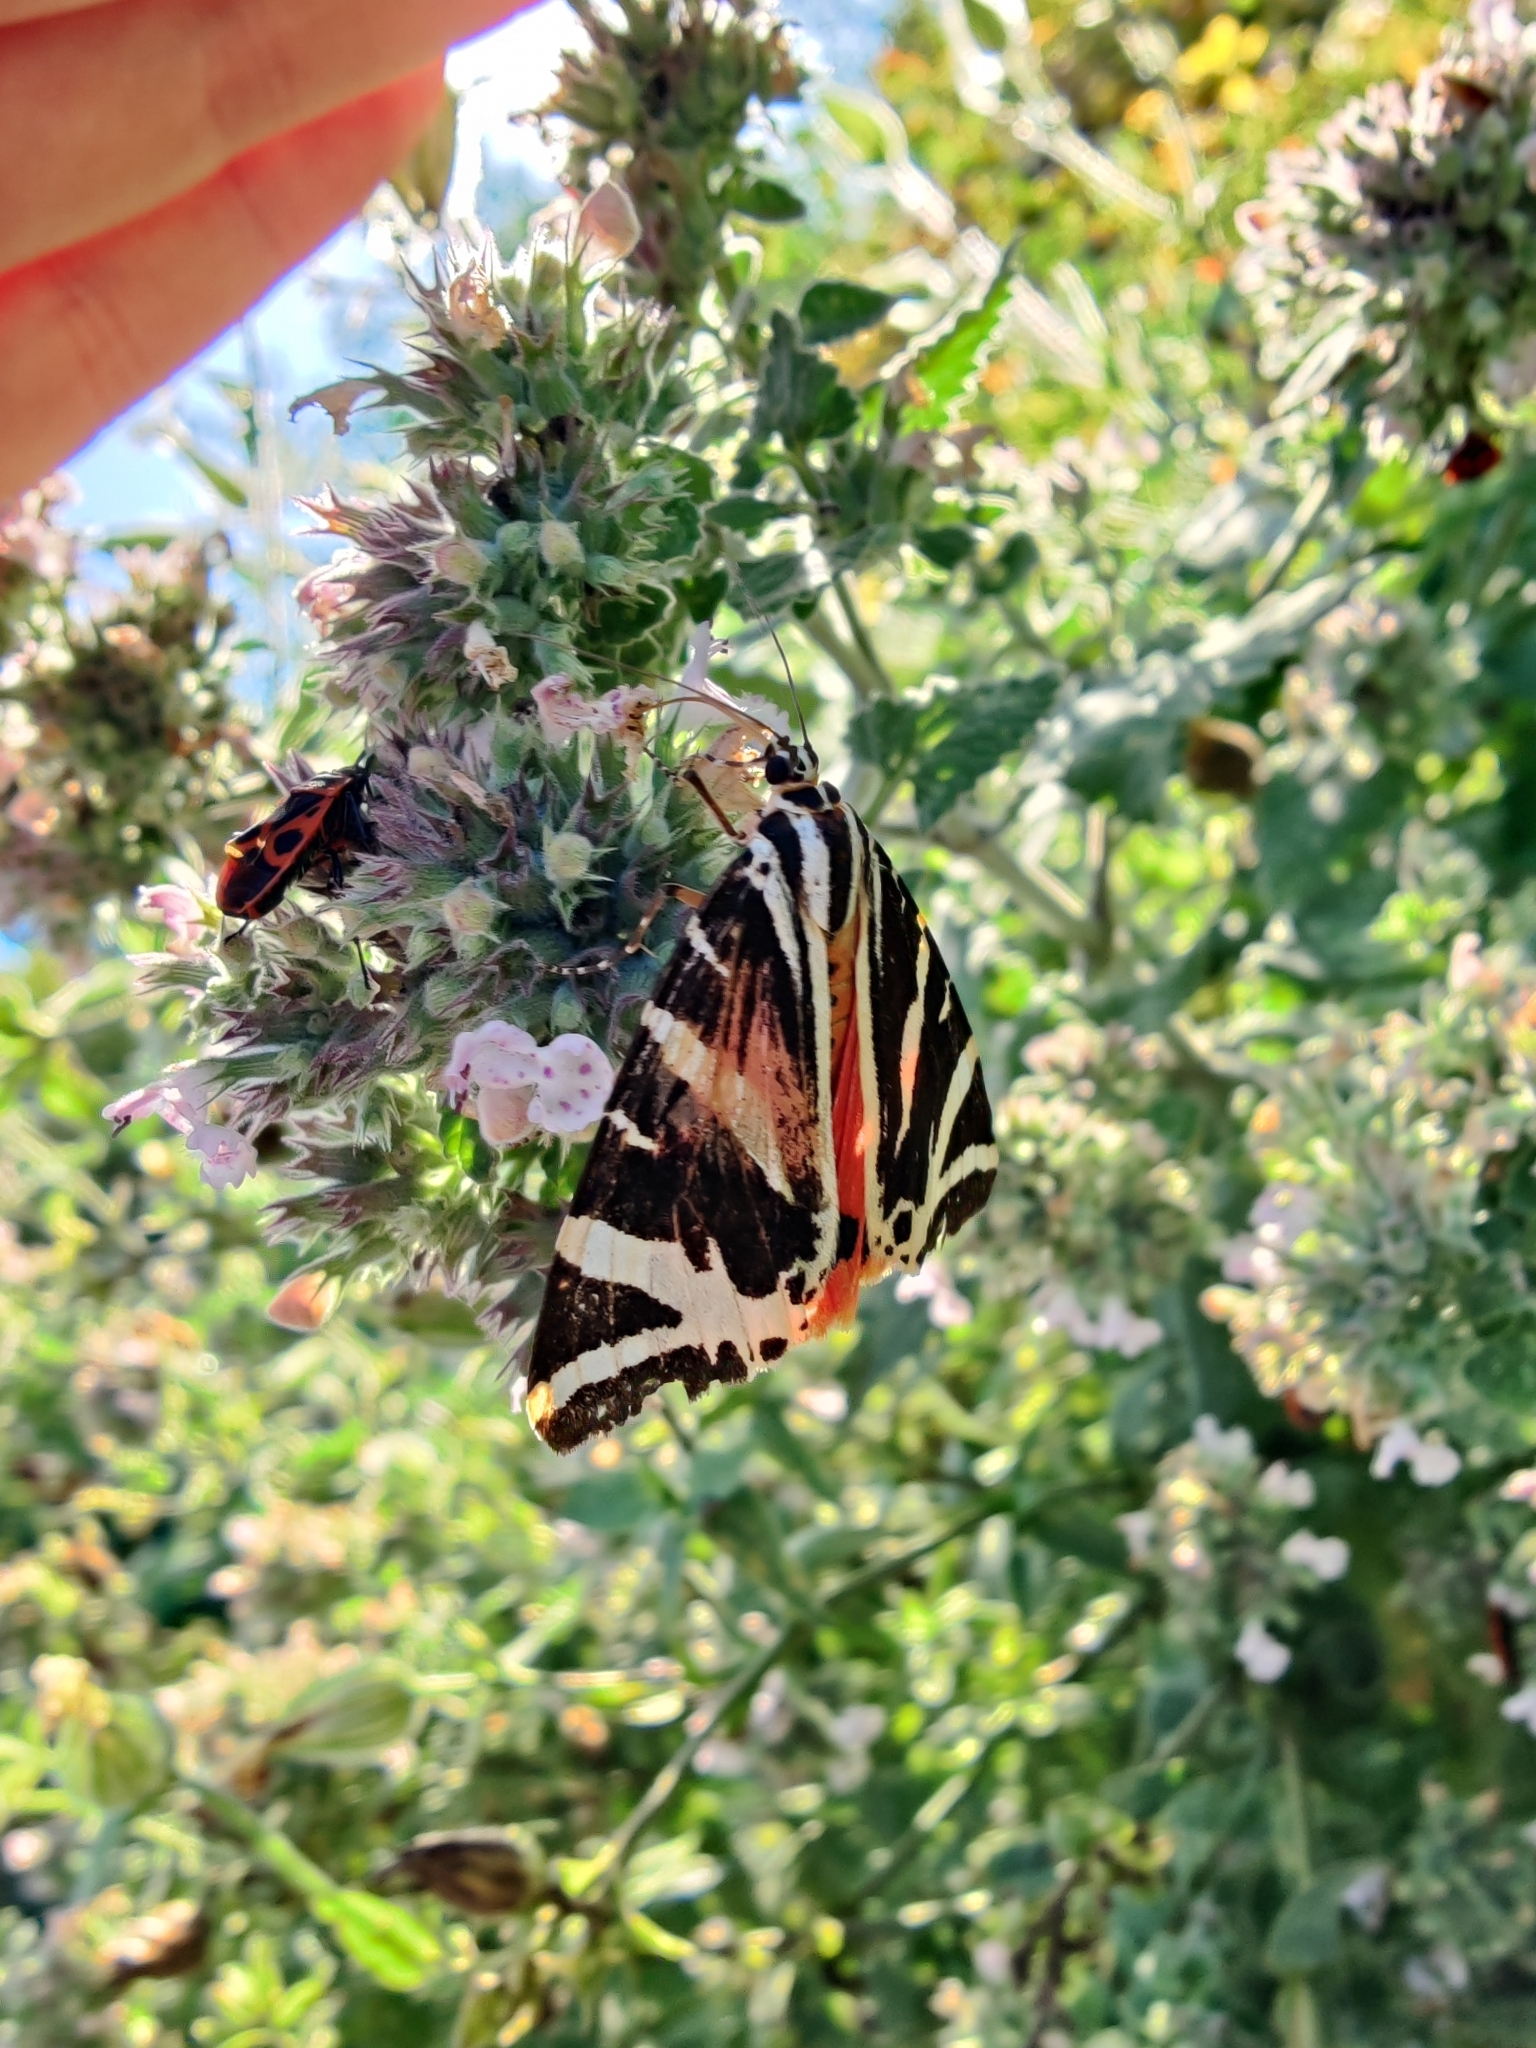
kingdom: Animalia
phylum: Arthropoda
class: Insecta
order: Lepidoptera
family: Erebidae
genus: Euplagia
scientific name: Euplagia quadripunctaria
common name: Jersey tiger
